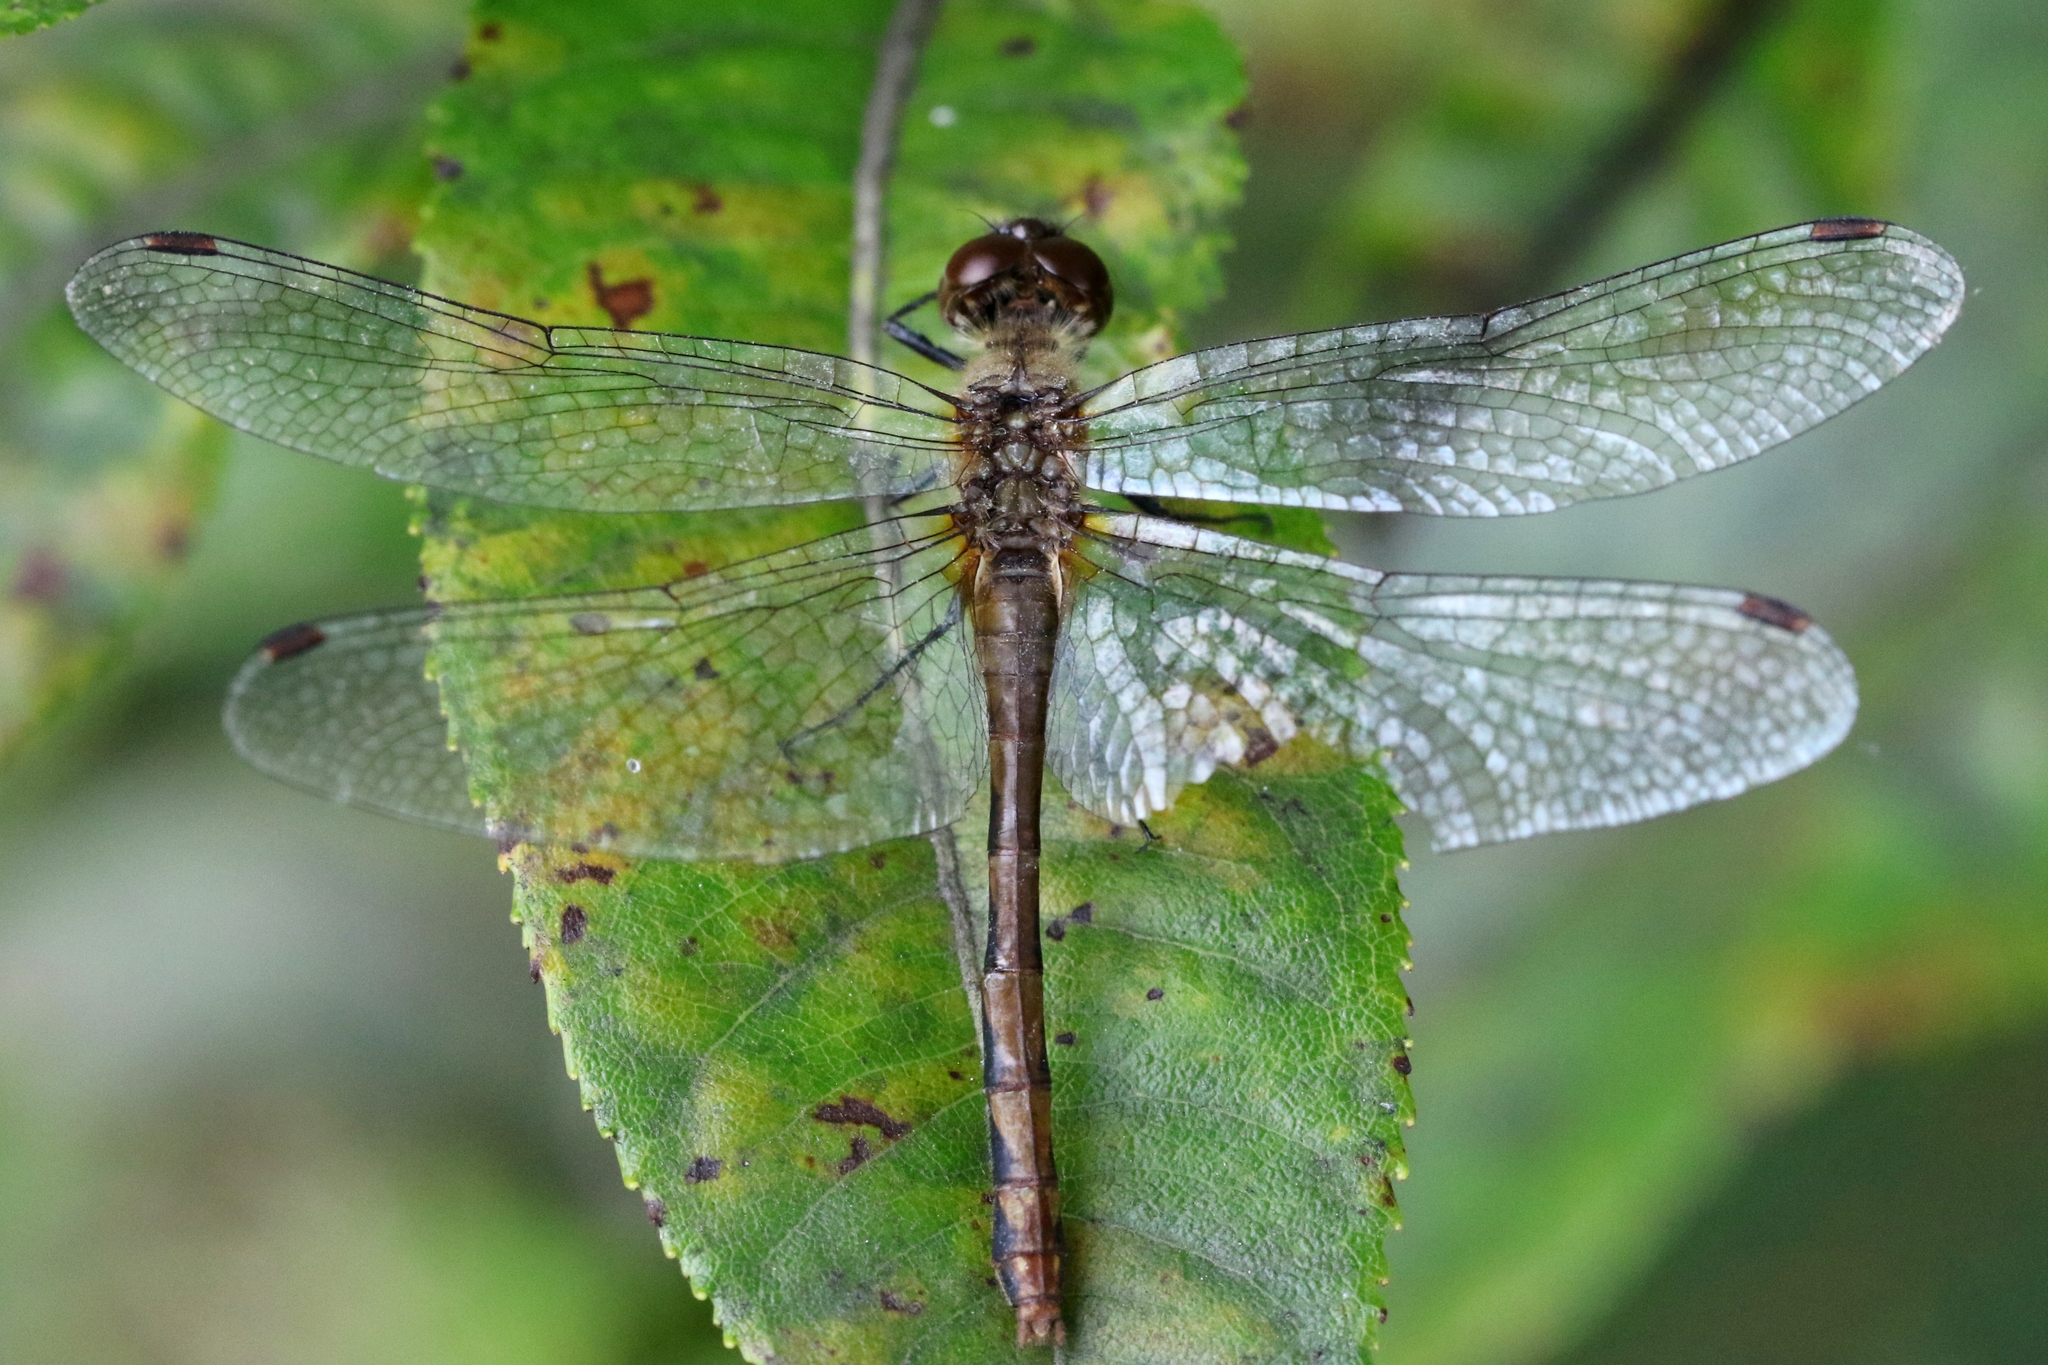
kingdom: Animalia
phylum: Arthropoda
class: Insecta
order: Odonata
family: Libellulidae
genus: Sympetrum
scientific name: Sympetrum obtrusum
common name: White-faced meadowhawk
